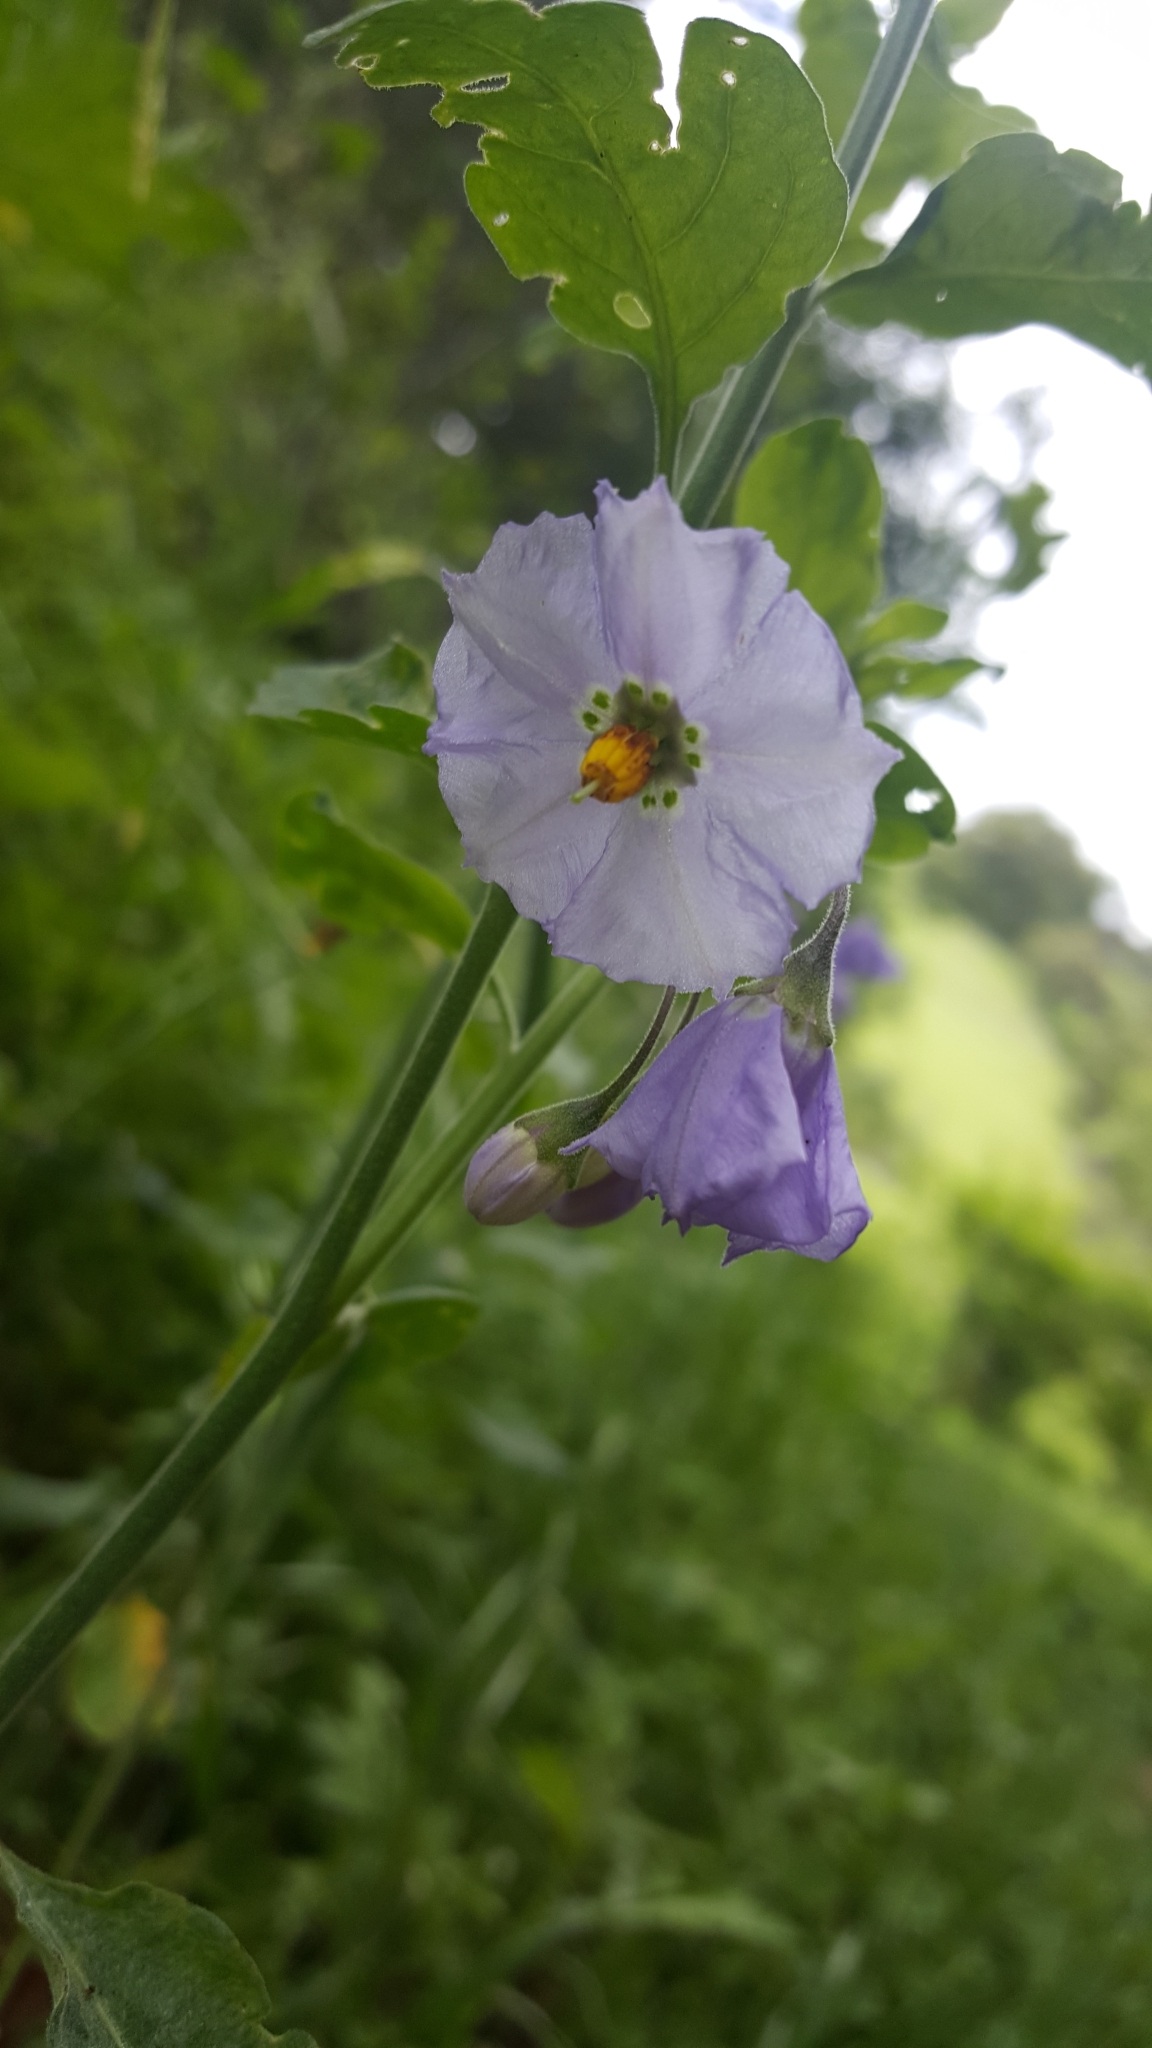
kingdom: Plantae
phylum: Tracheophyta
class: Magnoliopsida
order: Solanales
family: Solanaceae
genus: Solanum
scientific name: Solanum umbelliferum
